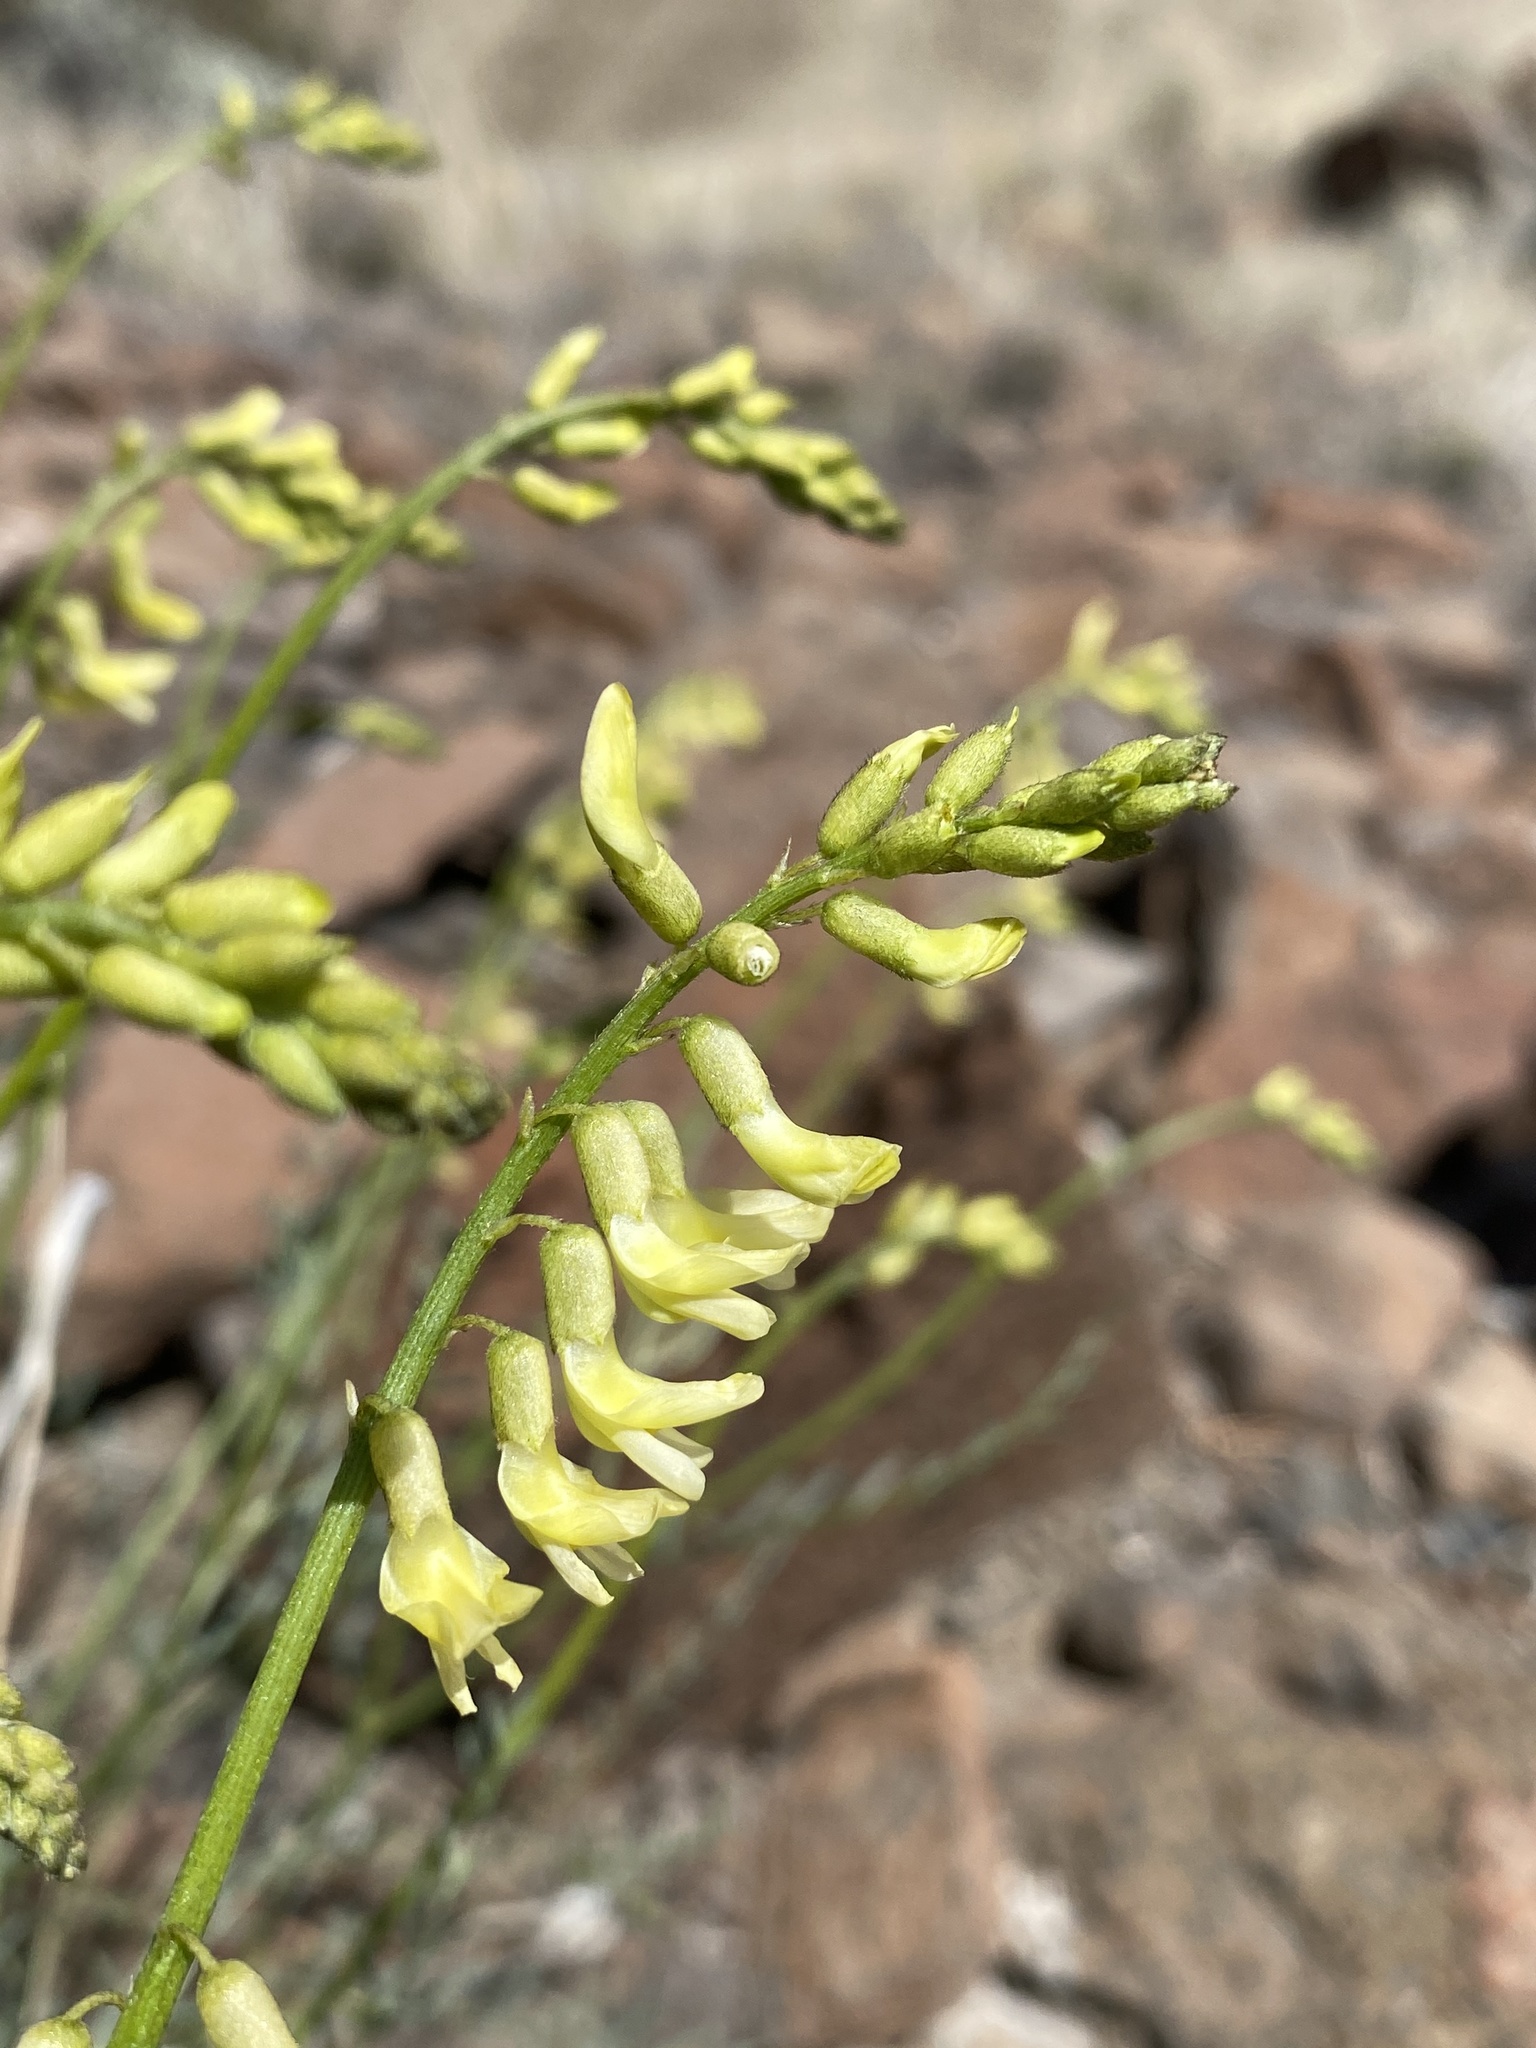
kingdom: Plantae
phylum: Tracheophyta
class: Magnoliopsida
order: Fabales
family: Fabaceae
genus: Astragalus
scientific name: Astragalus filipes
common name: Basalt milk-vetch
